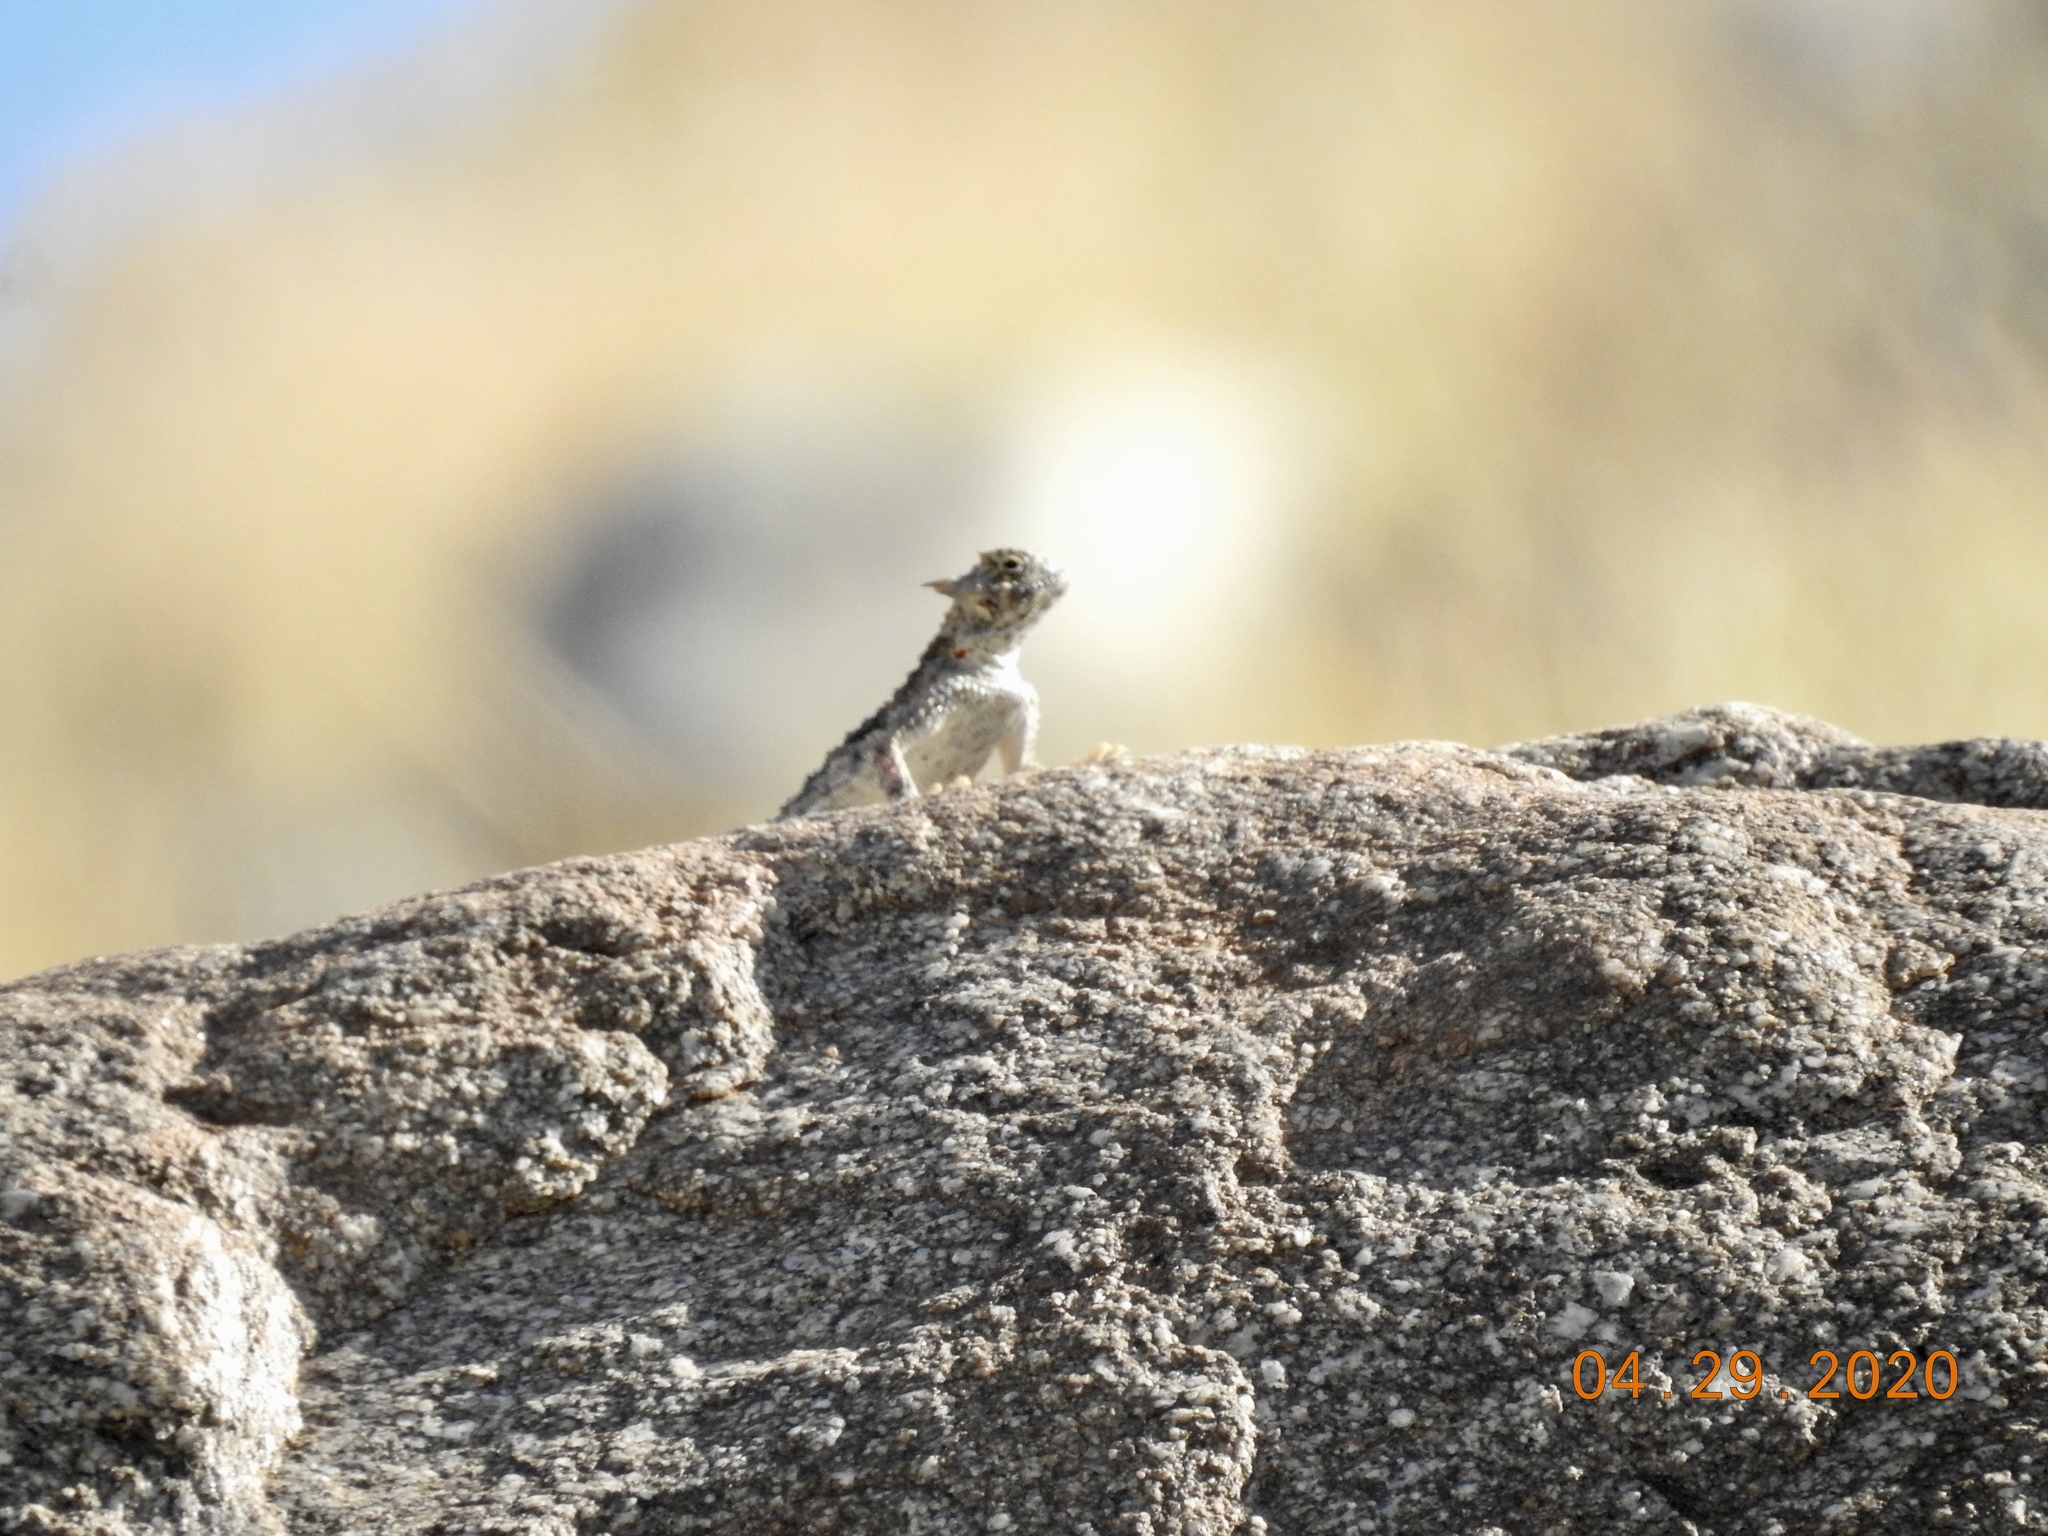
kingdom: Animalia
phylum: Chordata
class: Squamata
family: Phrynosomatidae
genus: Phrynosoma
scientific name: Phrynosoma platyrhinos
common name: Desert horned lizard
